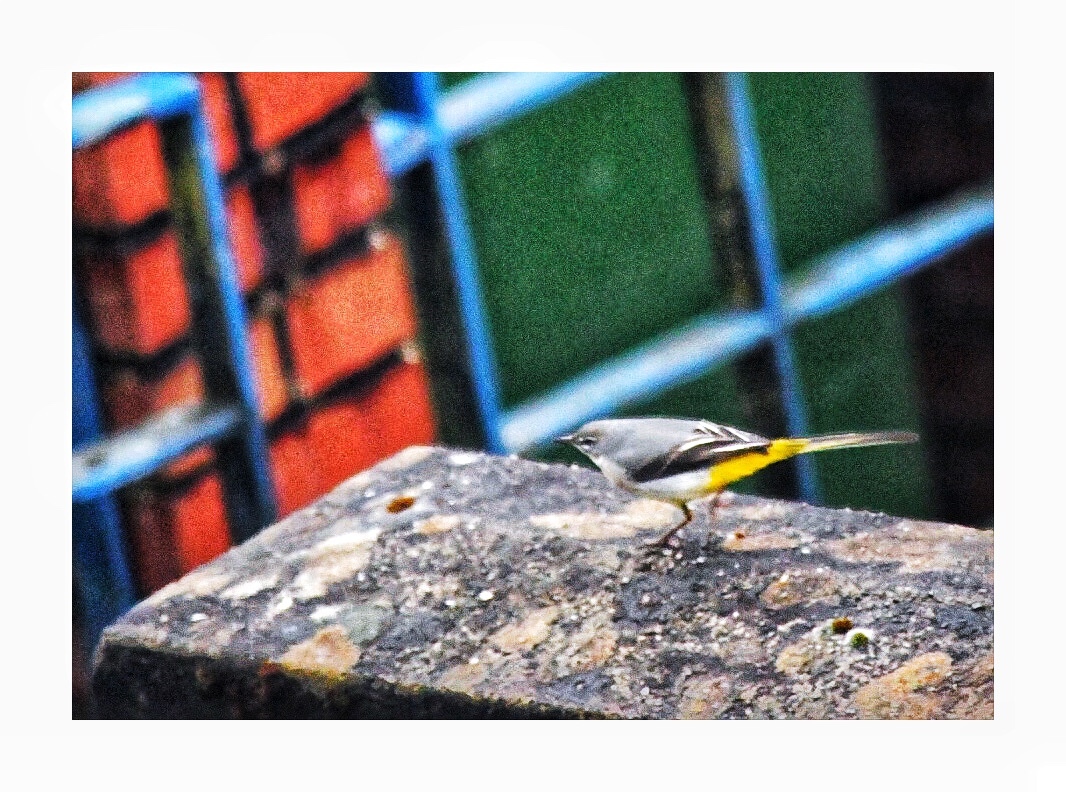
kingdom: Animalia
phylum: Chordata
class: Aves
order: Passeriformes
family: Motacillidae
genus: Motacilla
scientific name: Motacilla cinerea
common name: Grey wagtail
